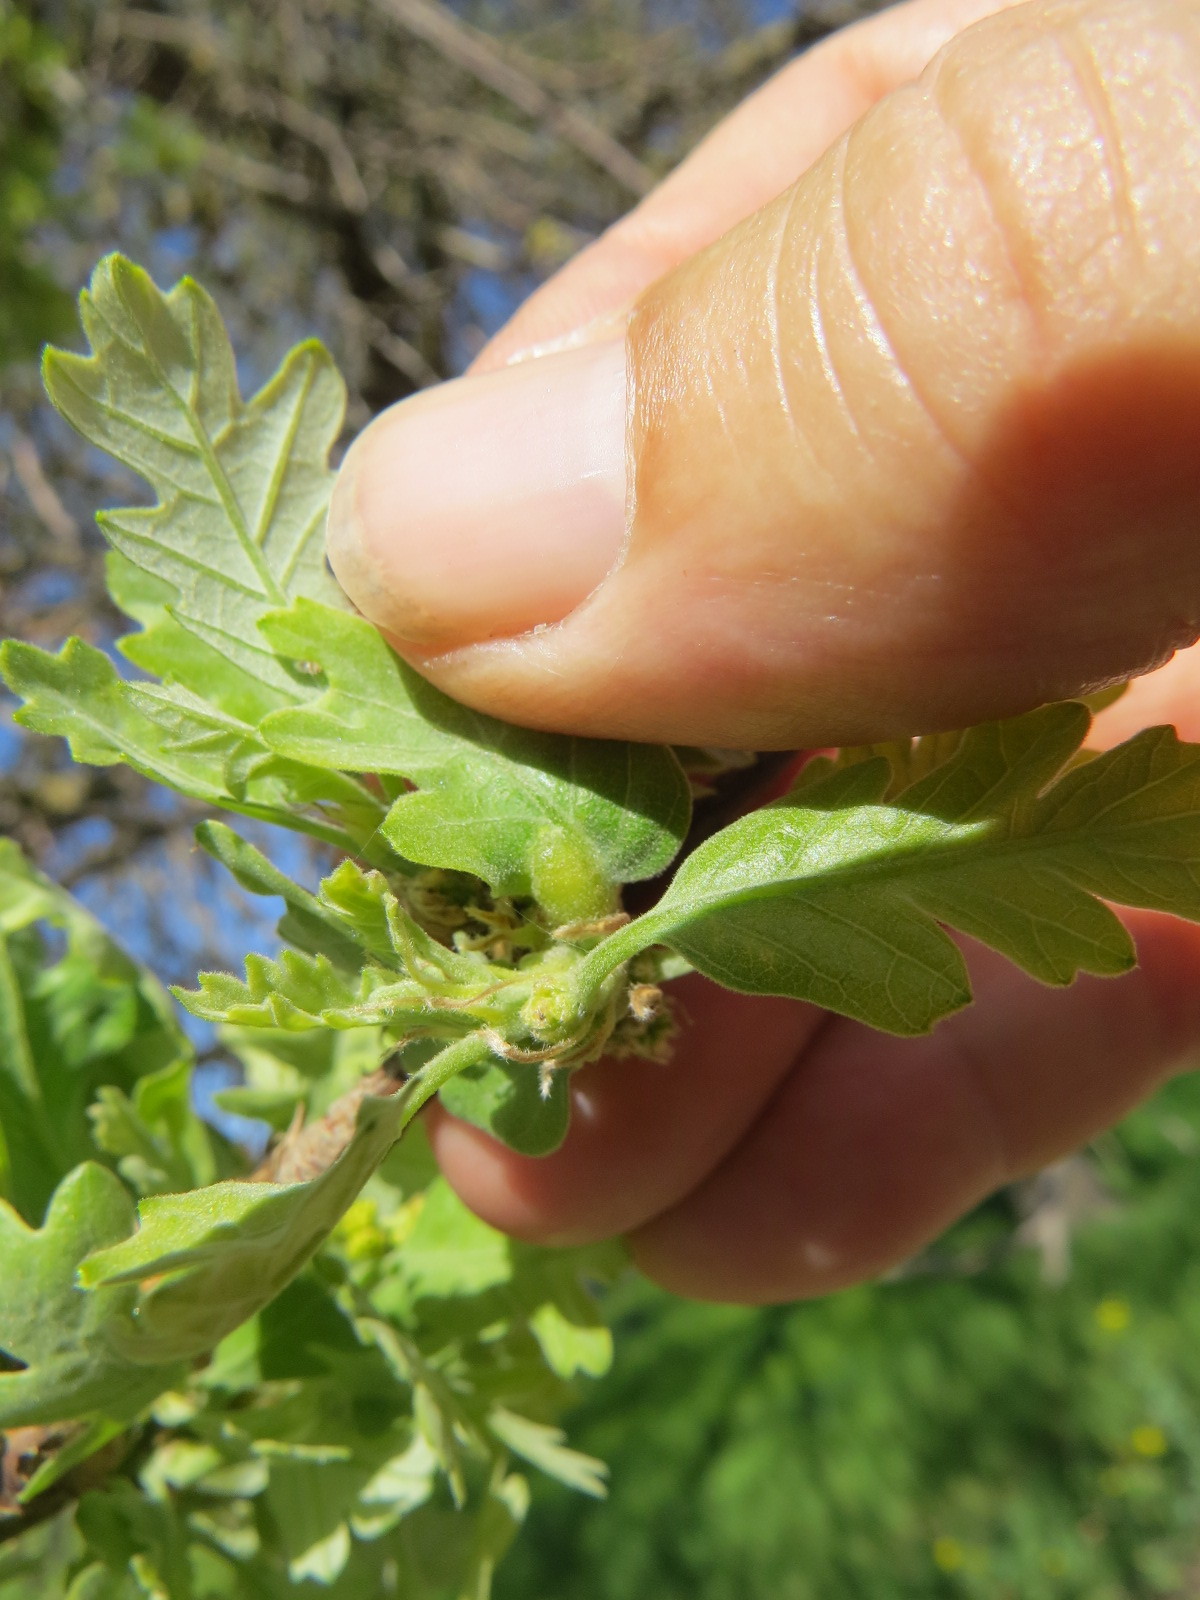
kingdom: Plantae
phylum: Tracheophyta
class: Magnoliopsida
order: Fagales
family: Fagaceae
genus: Quercus
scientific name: Quercus lobata
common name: Valley oak
